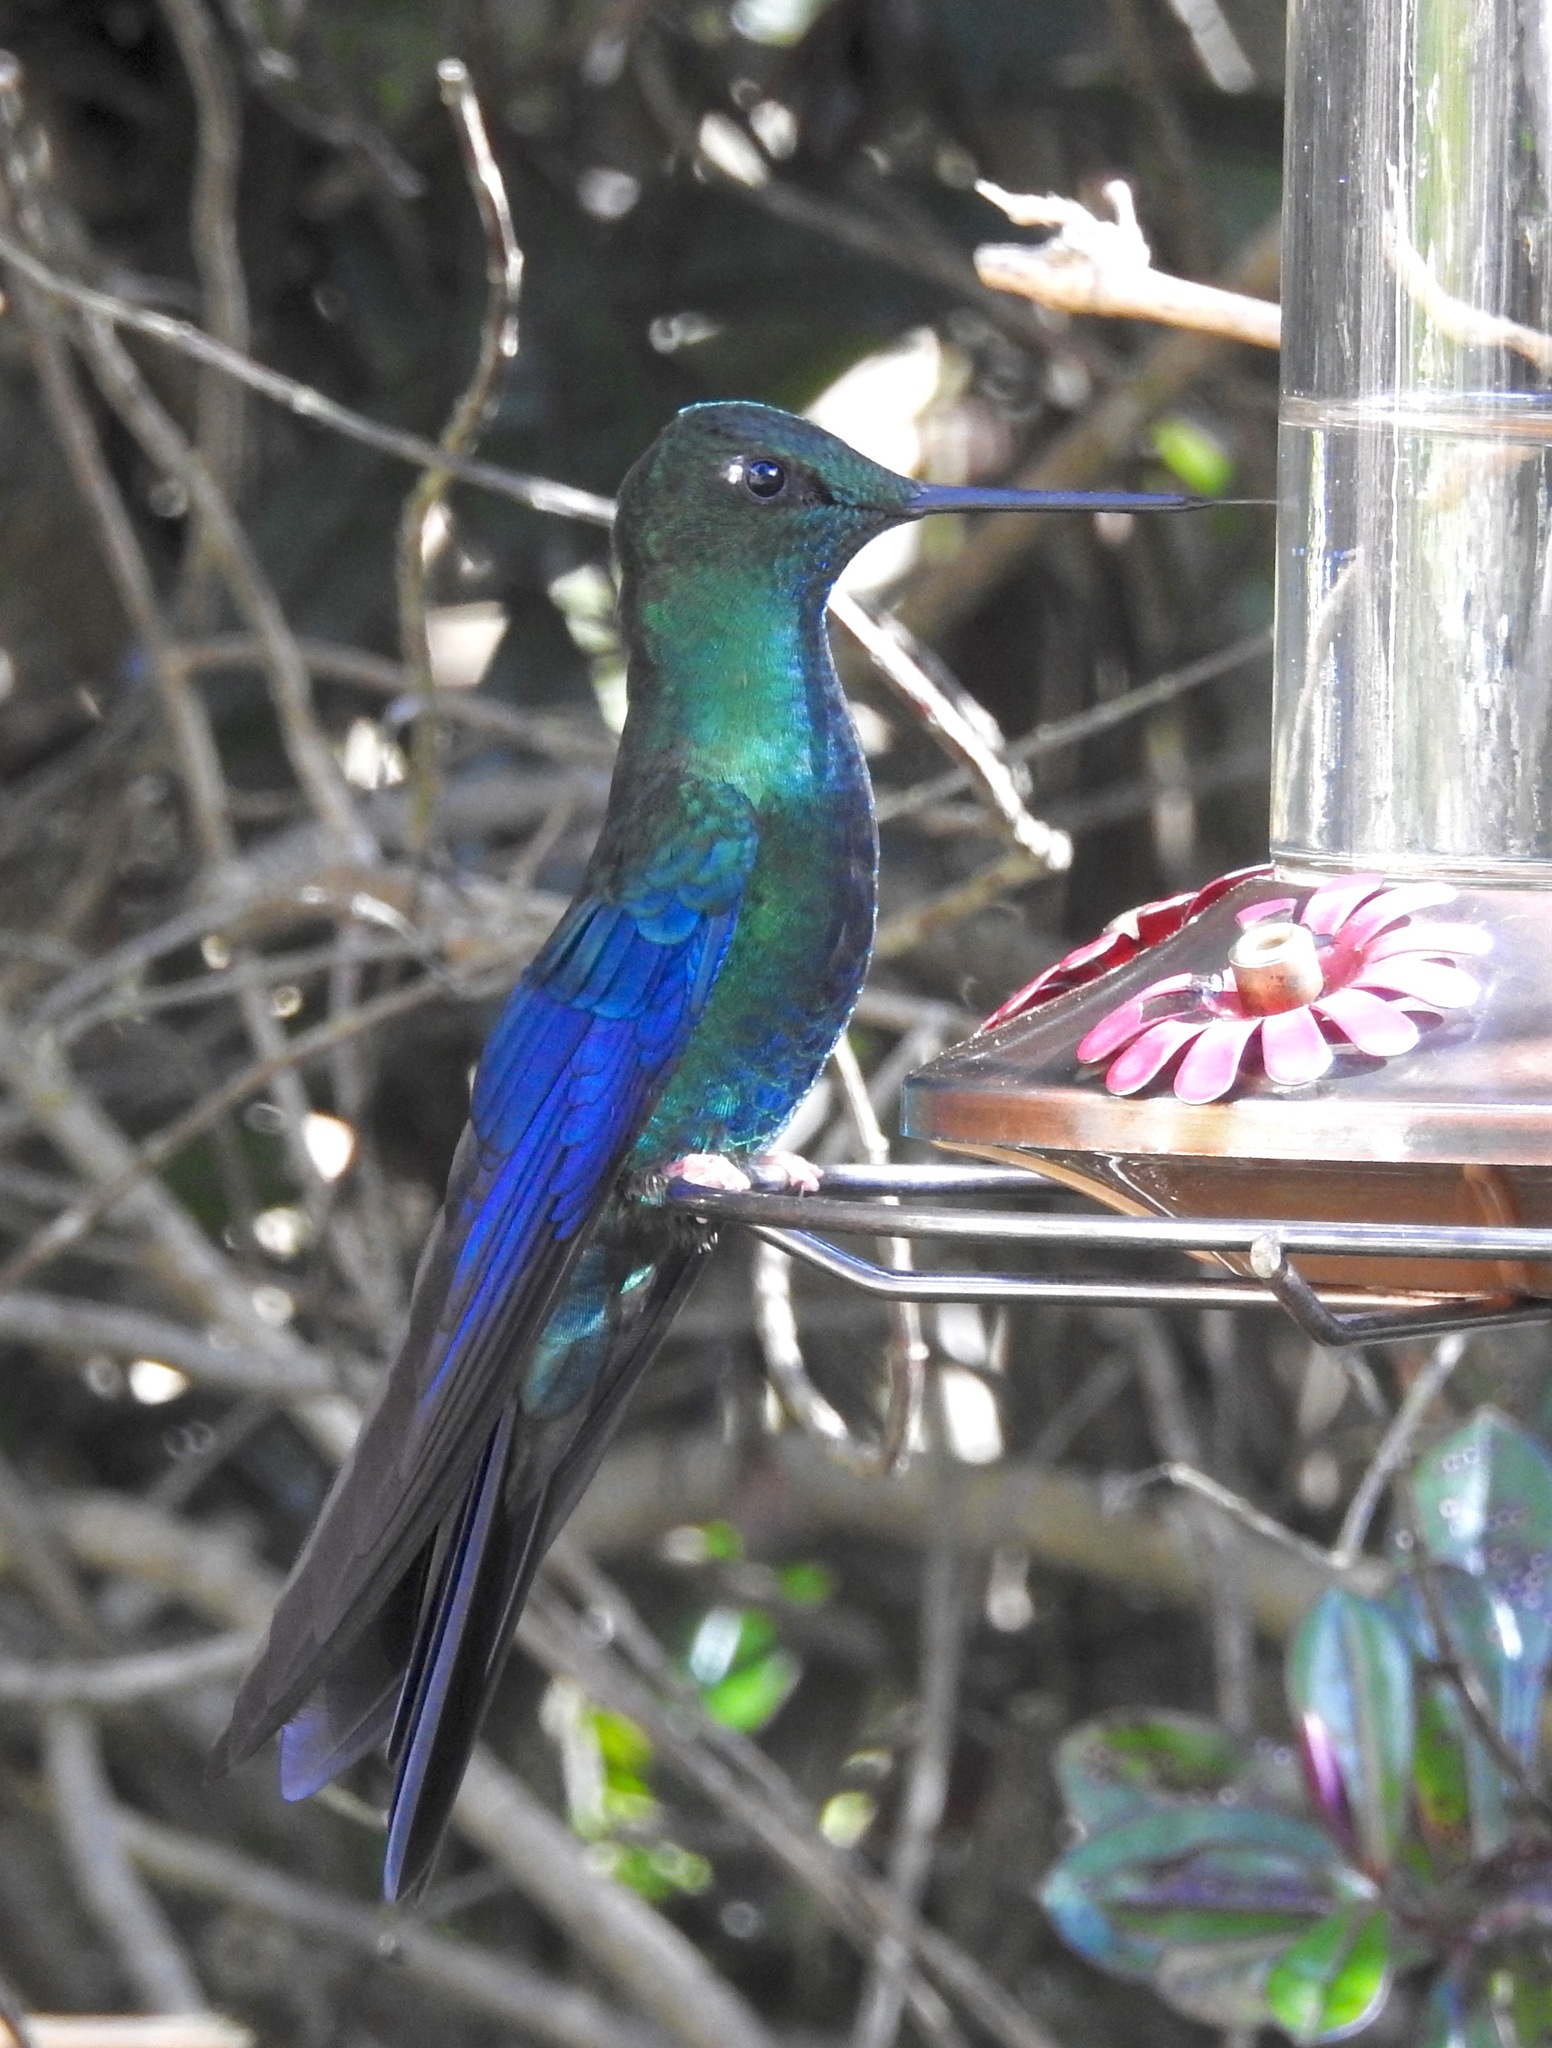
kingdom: Animalia
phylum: Chordata
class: Aves
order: Apodiformes
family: Trochilidae
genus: Pterophanes
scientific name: Pterophanes cyanopterus
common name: Great sapphirewing
